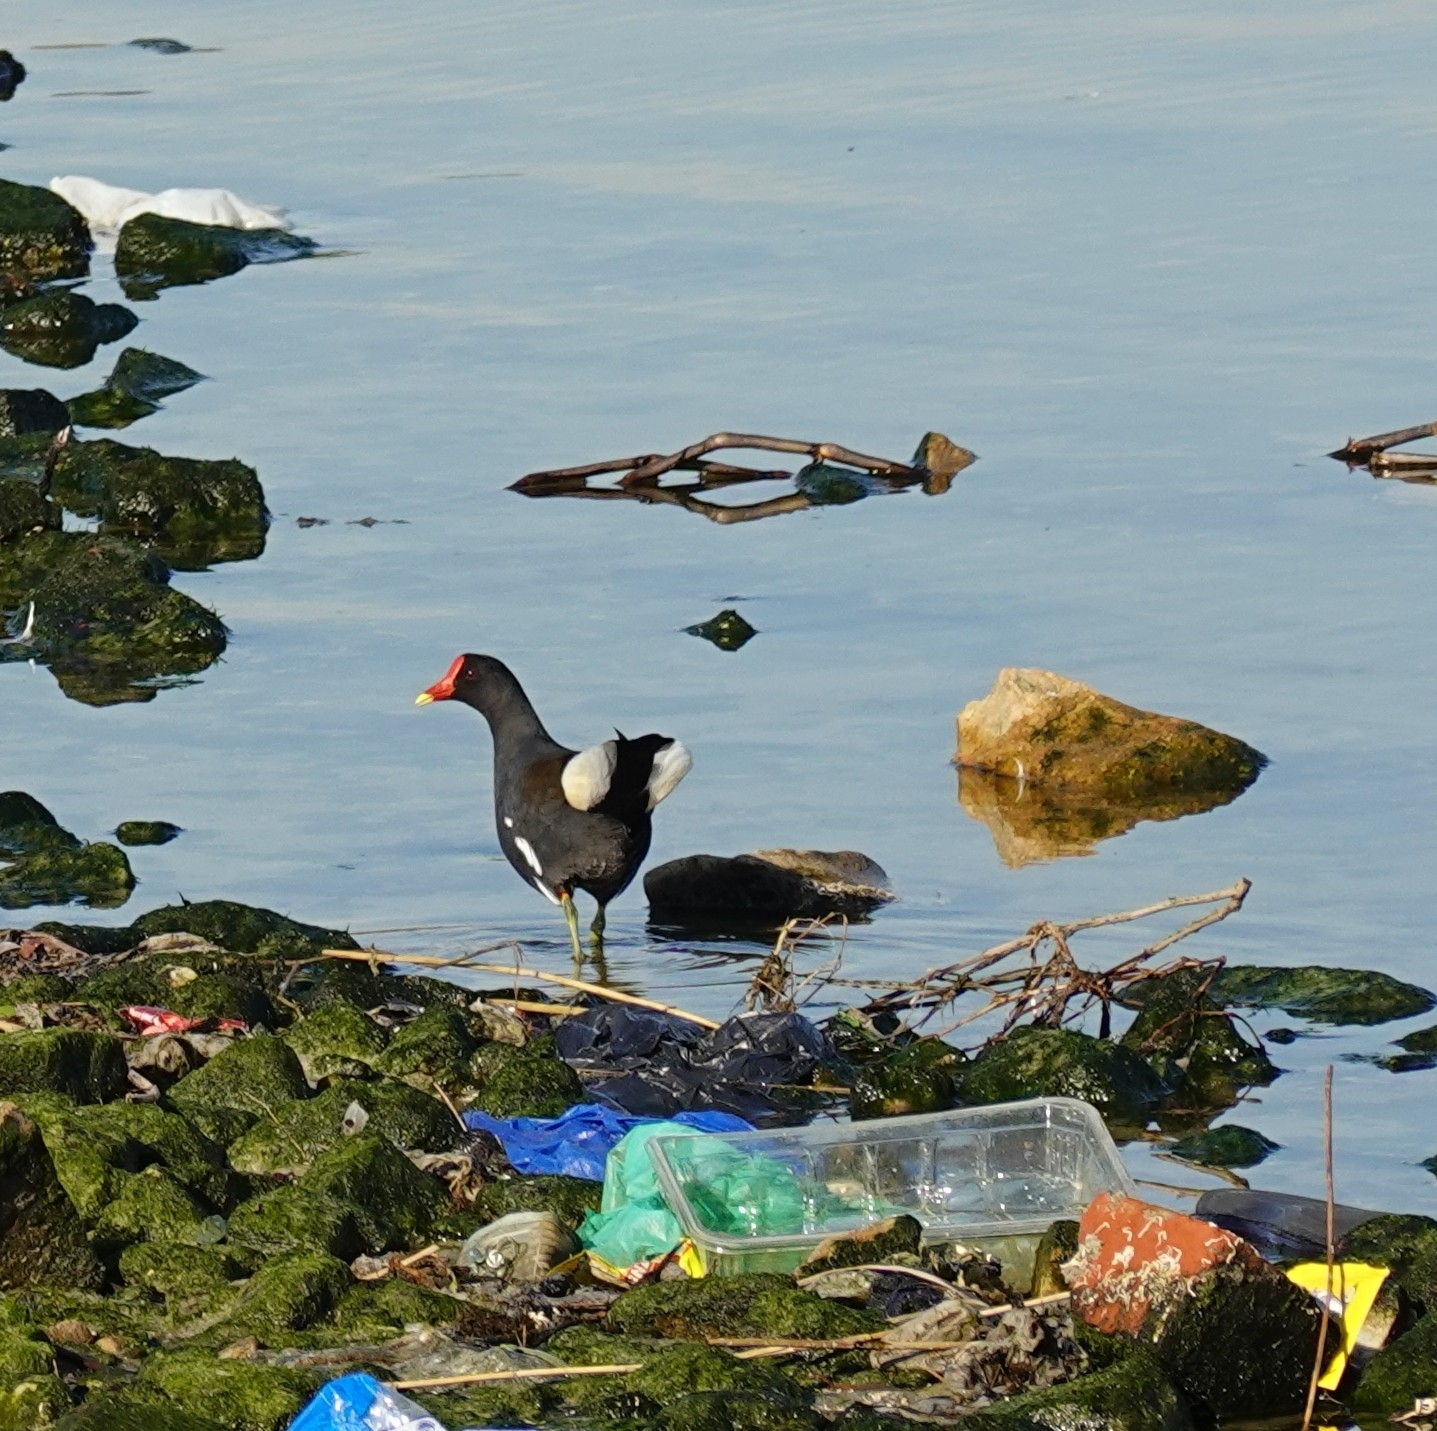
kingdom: Animalia
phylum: Chordata
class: Aves
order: Gruiformes
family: Rallidae
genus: Gallinula
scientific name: Gallinula chloropus
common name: Common moorhen
